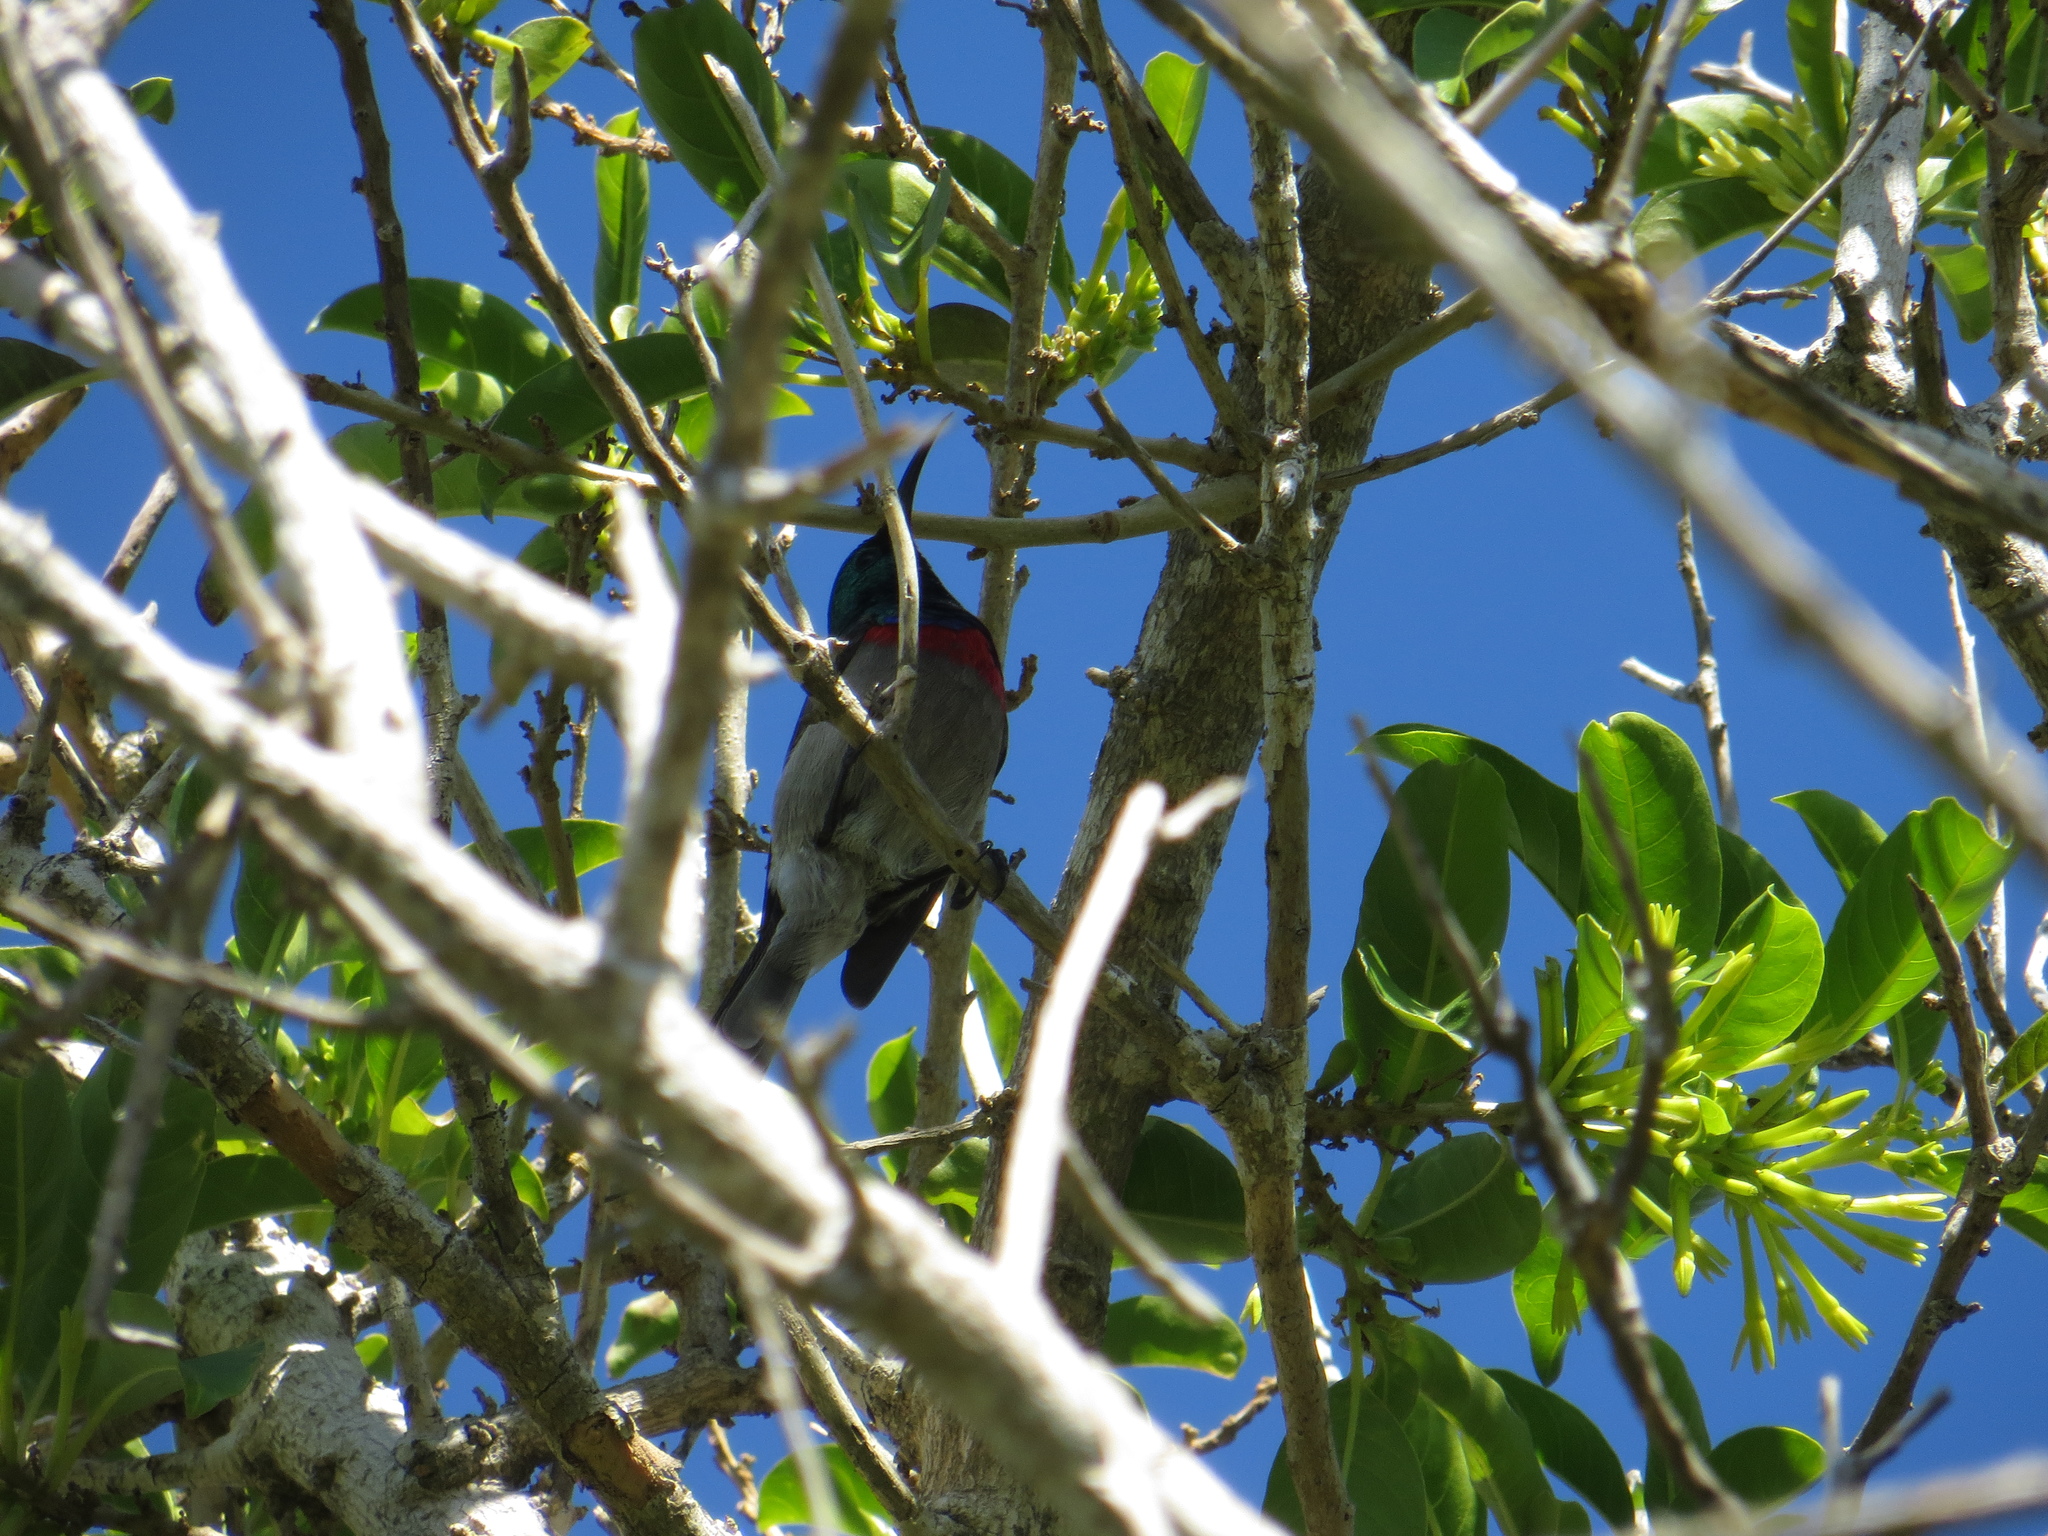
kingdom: Animalia
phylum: Chordata
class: Aves
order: Passeriformes
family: Nectariniidae
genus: Cinnyris
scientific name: Cinnyris chalybeus
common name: Southern double-collared sunbird
